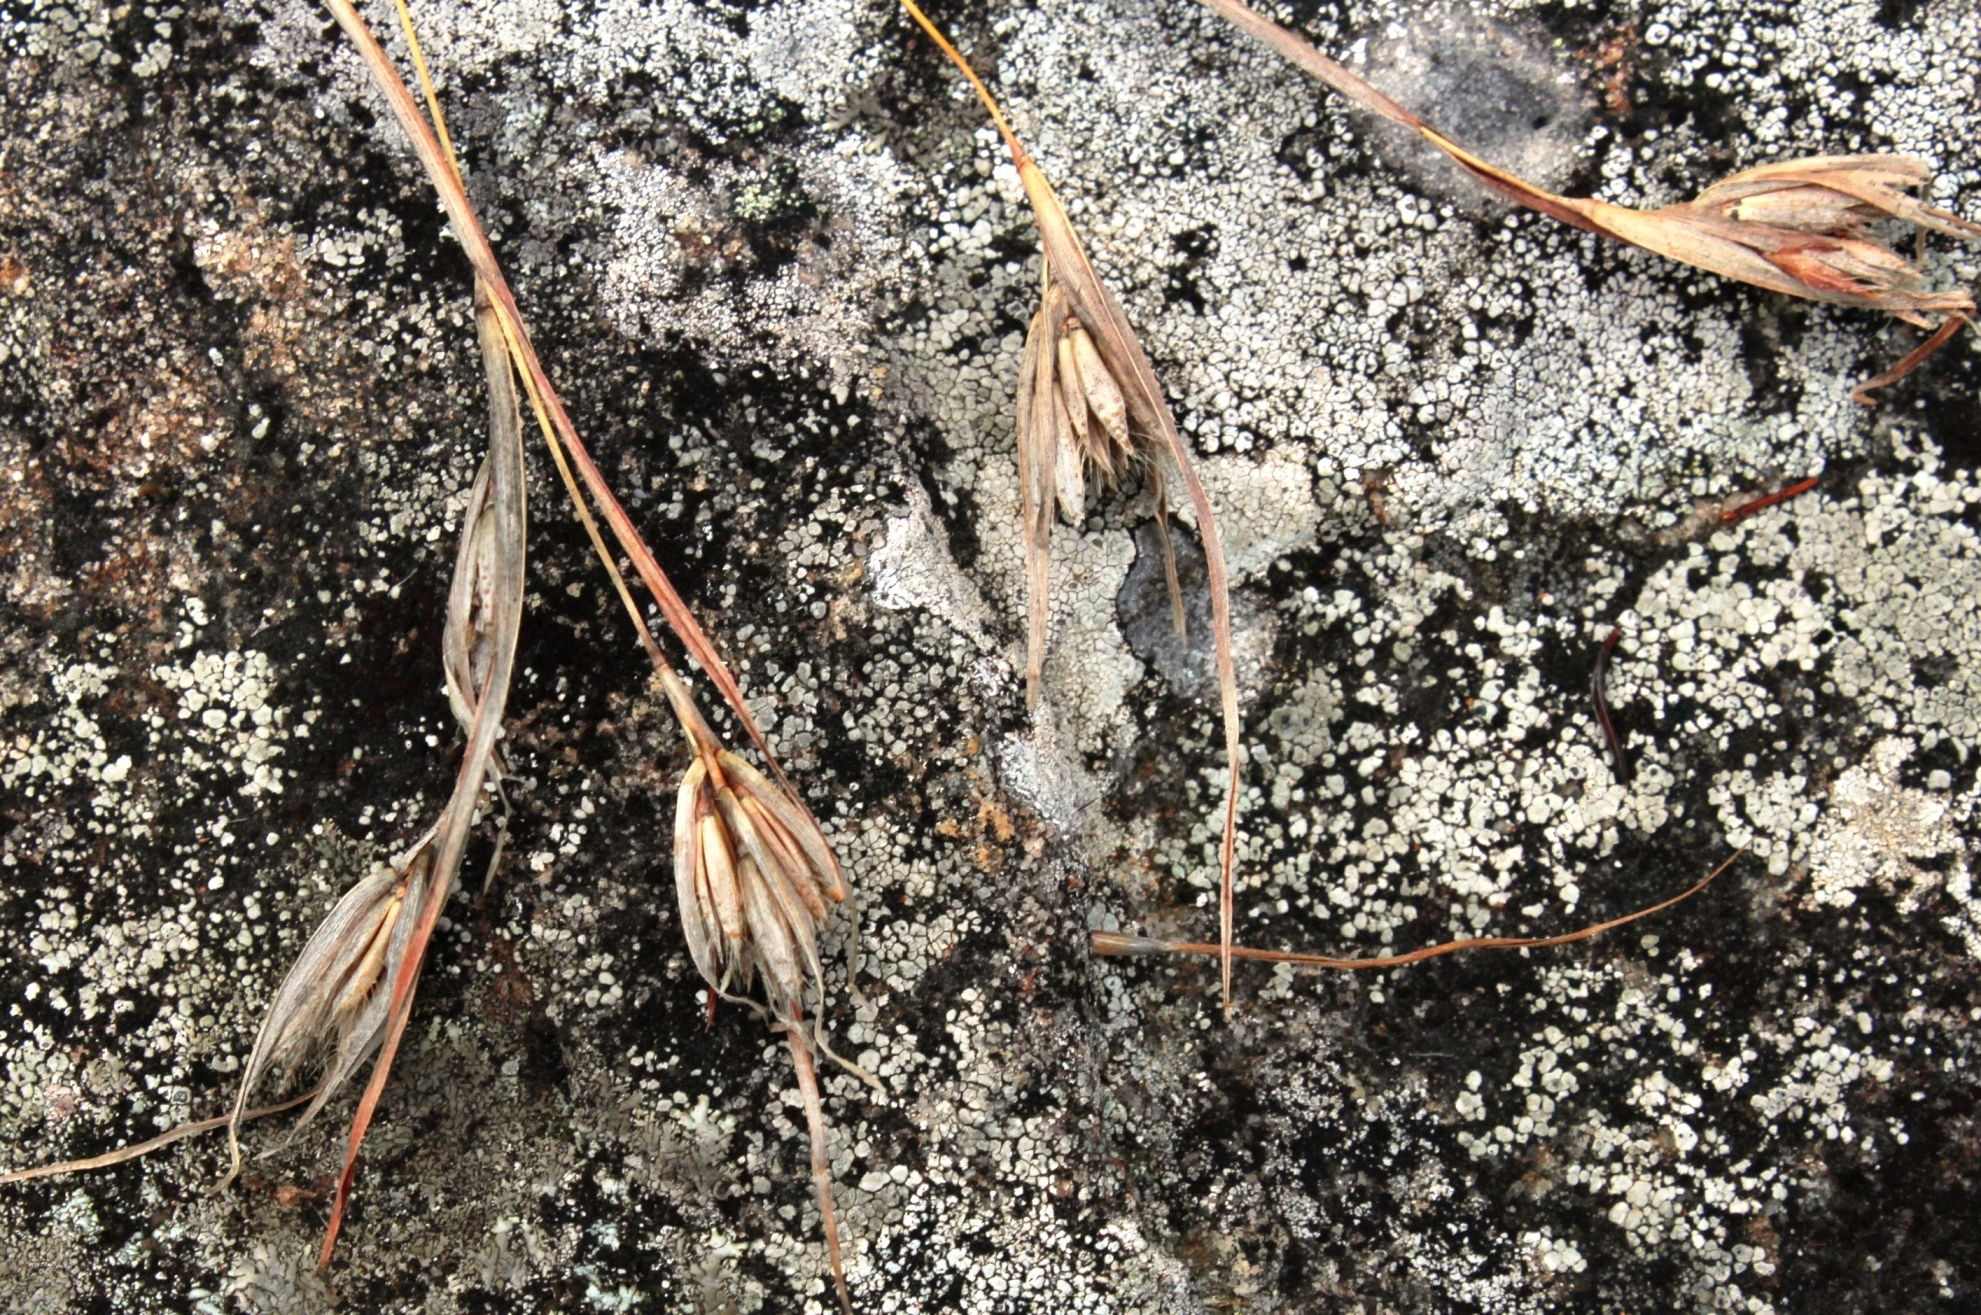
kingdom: Plantae
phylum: Tracheophyta
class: Liliopsida
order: Poales
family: Poaceae
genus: Themeda
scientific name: Themeda triandra
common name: Kangaroo grass
